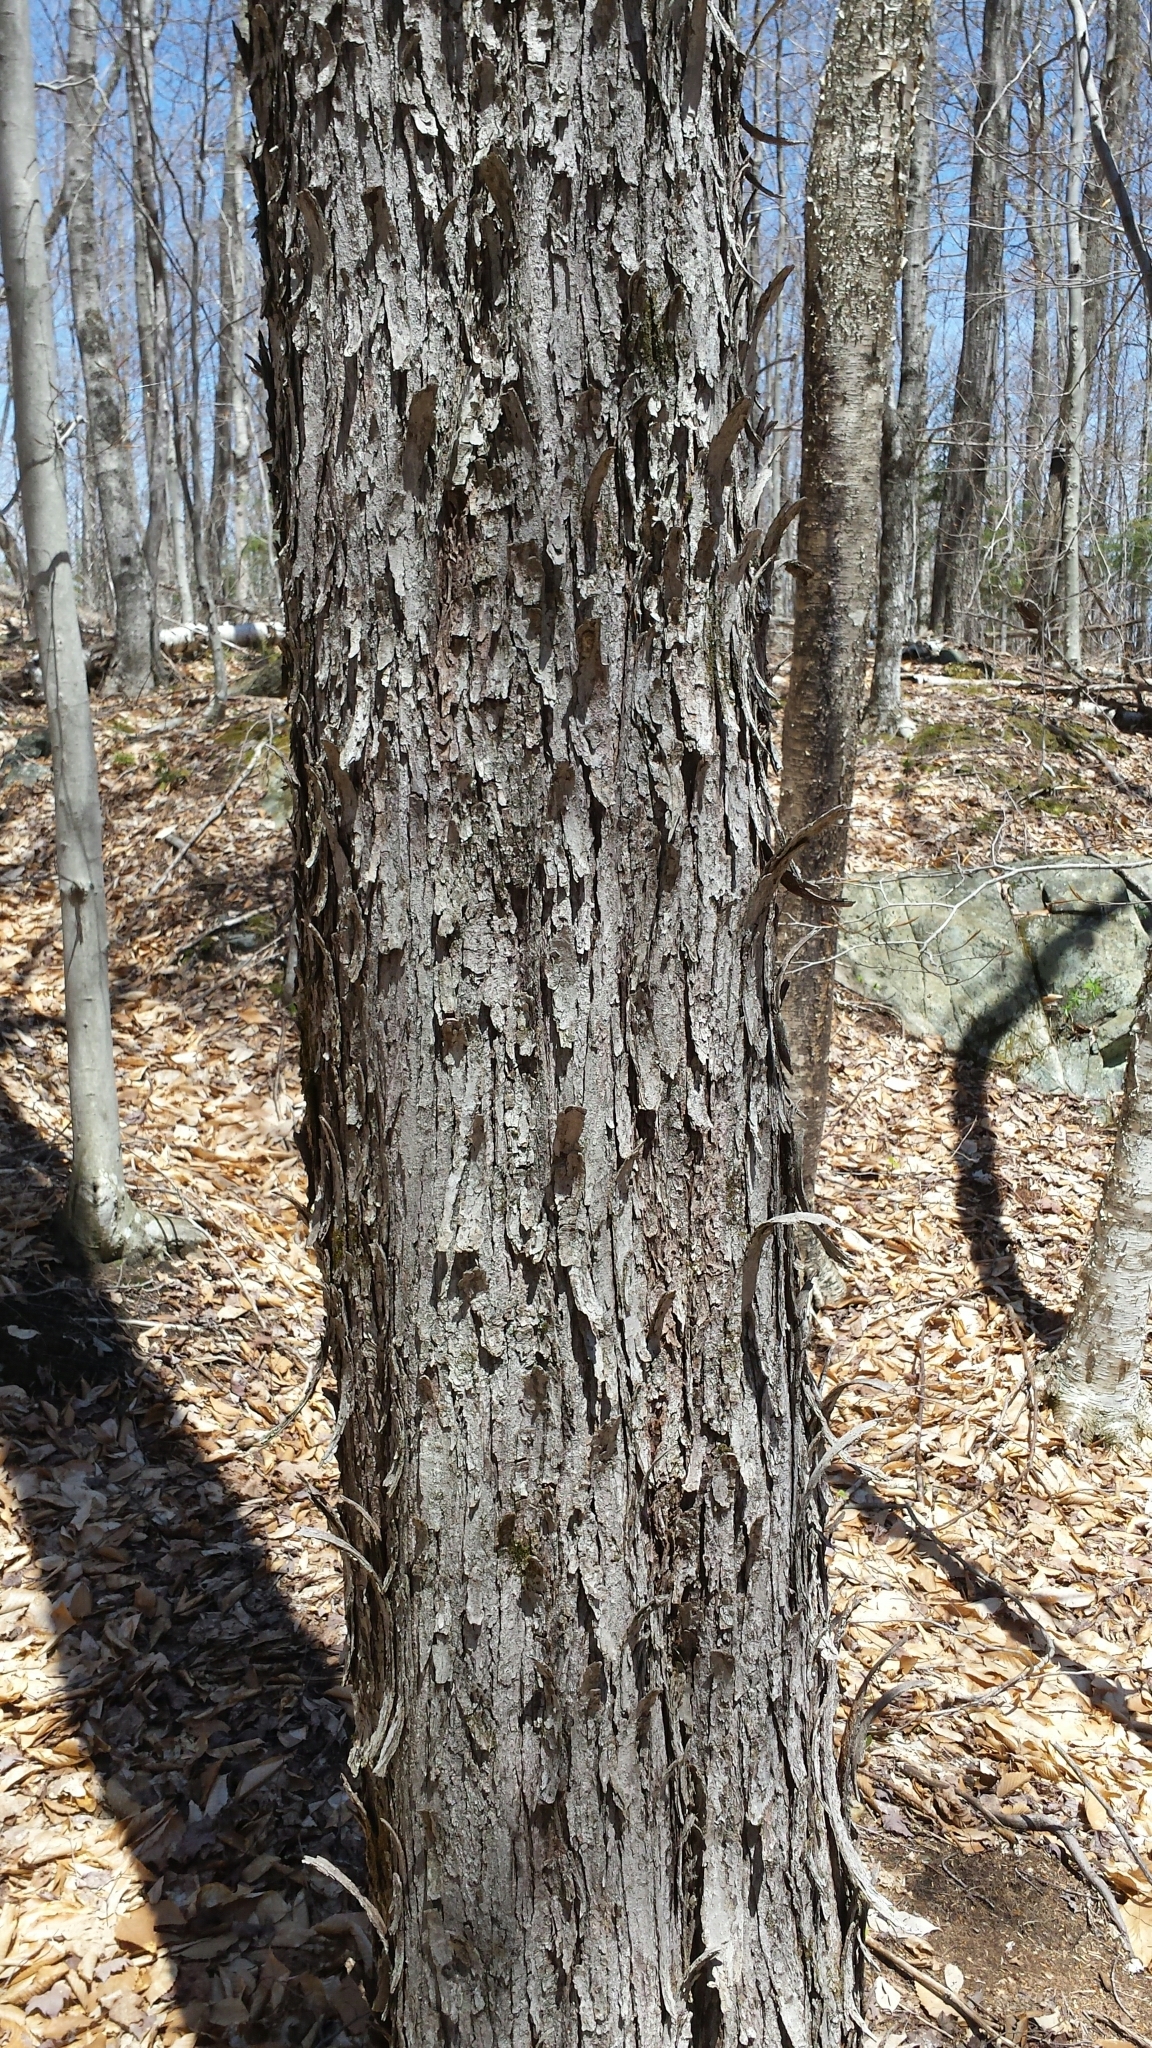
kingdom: Plantae
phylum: Tracheophyta
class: Magnoliopsida
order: Sapindales
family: Sapindaceae
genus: Acer
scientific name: Acer rubrum
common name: Red maple
